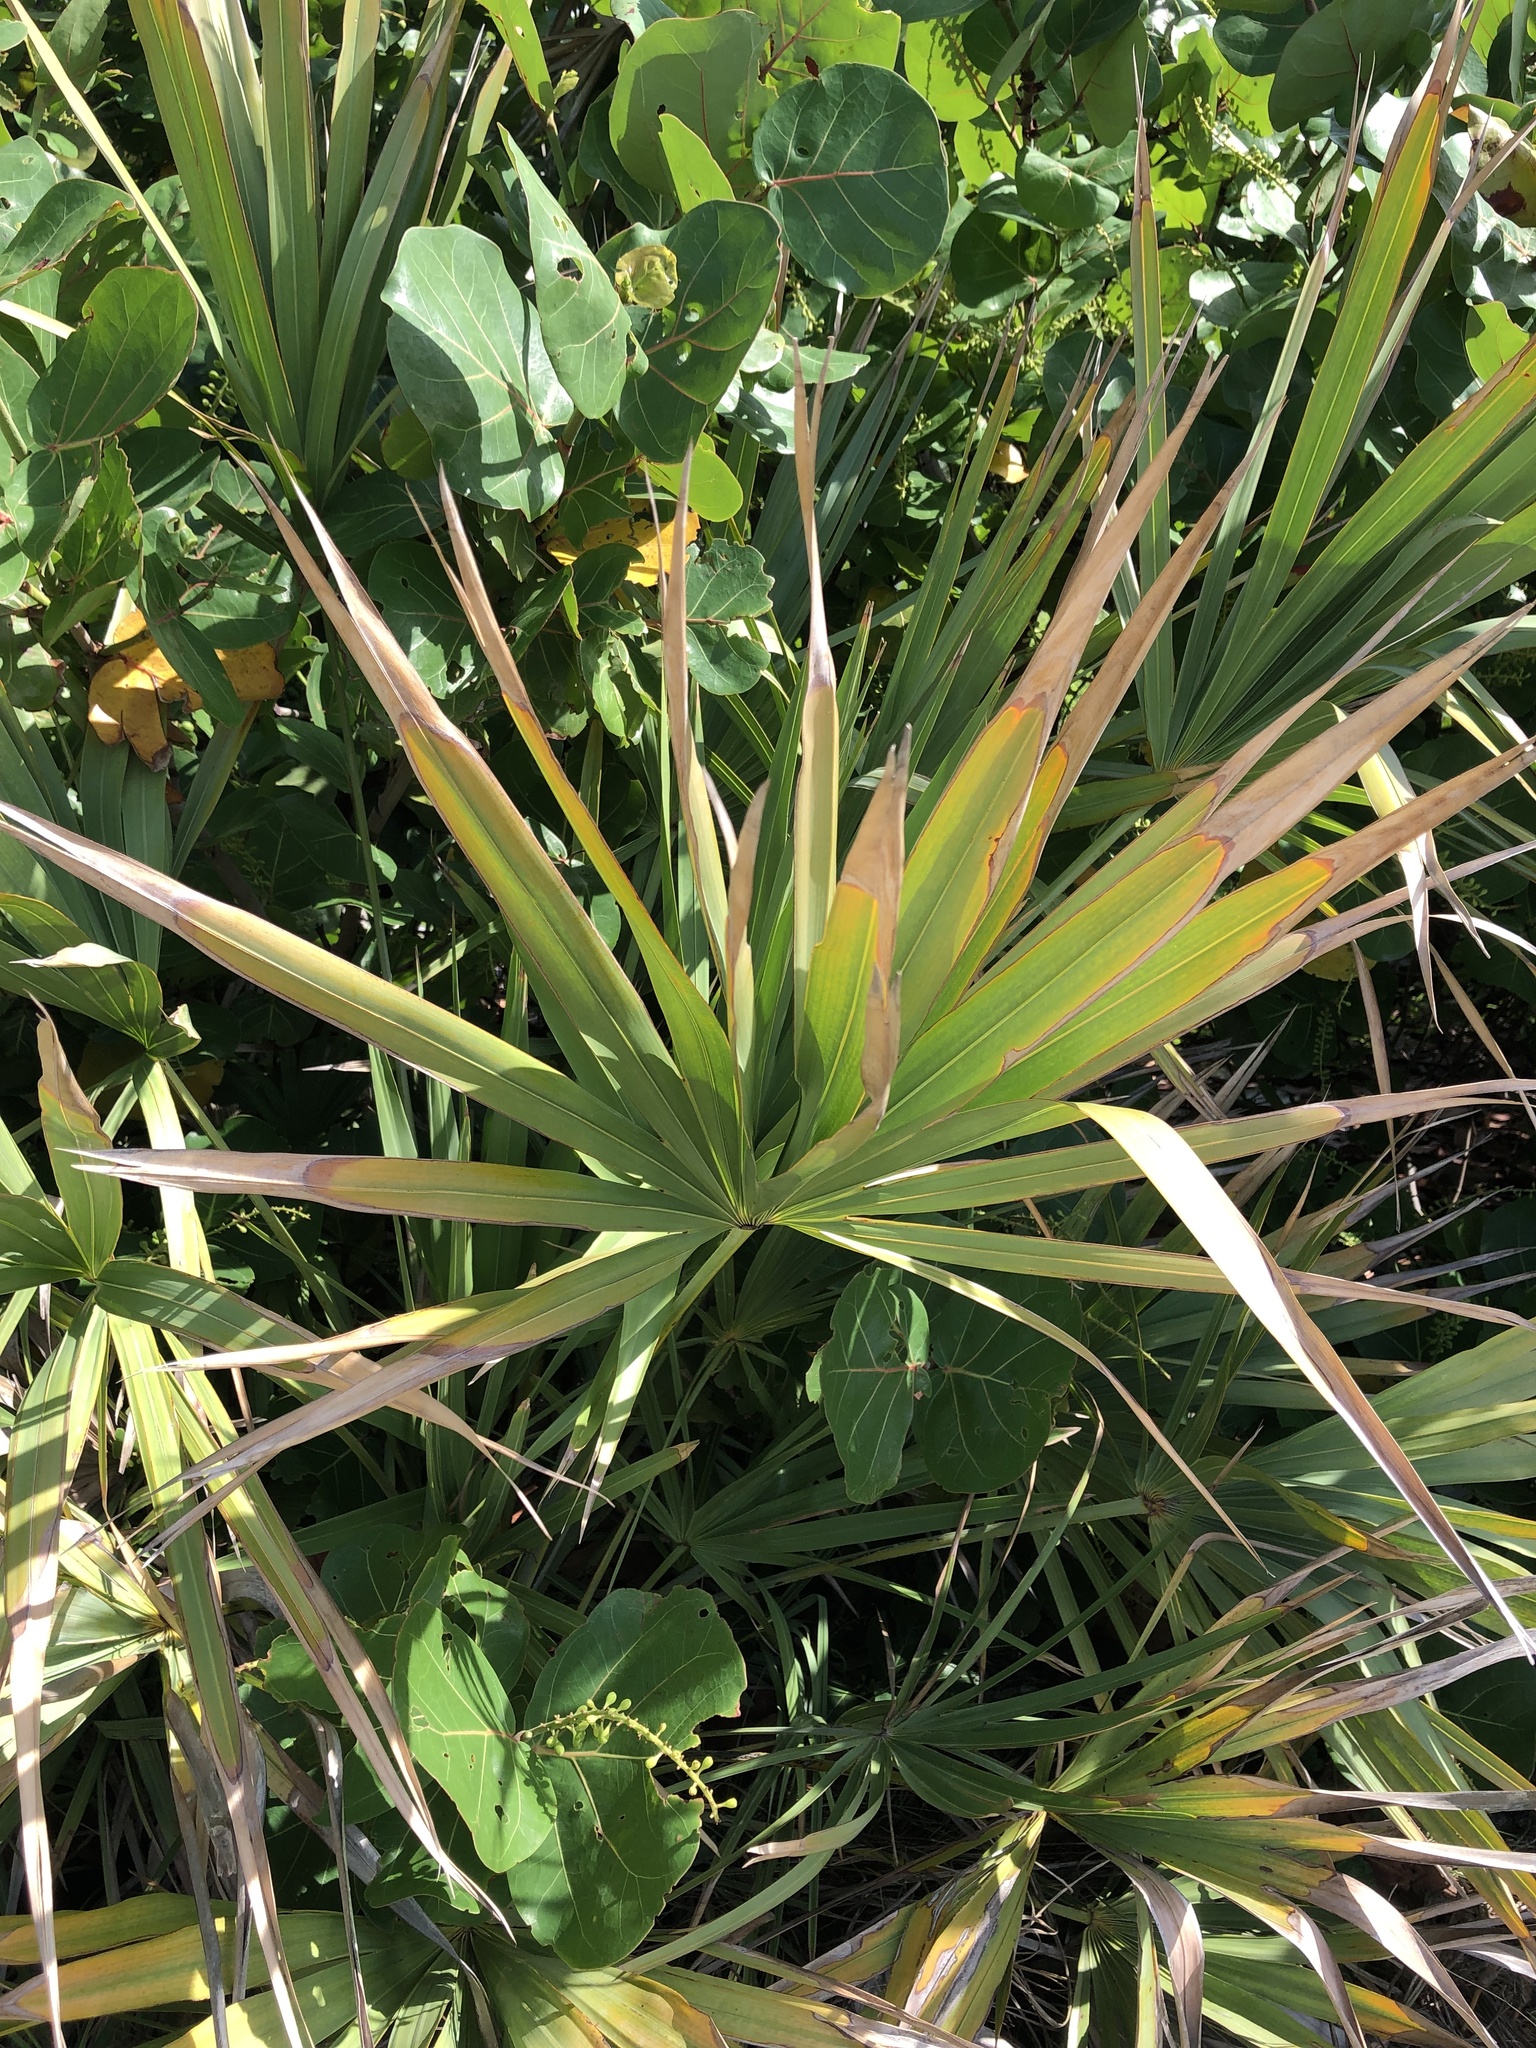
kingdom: Plantae
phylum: Tracheophyta
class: Liliopsida
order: Arecales
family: Arecaceae
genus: Serenoa
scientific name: Serenoa repens
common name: Saw-palmetto
